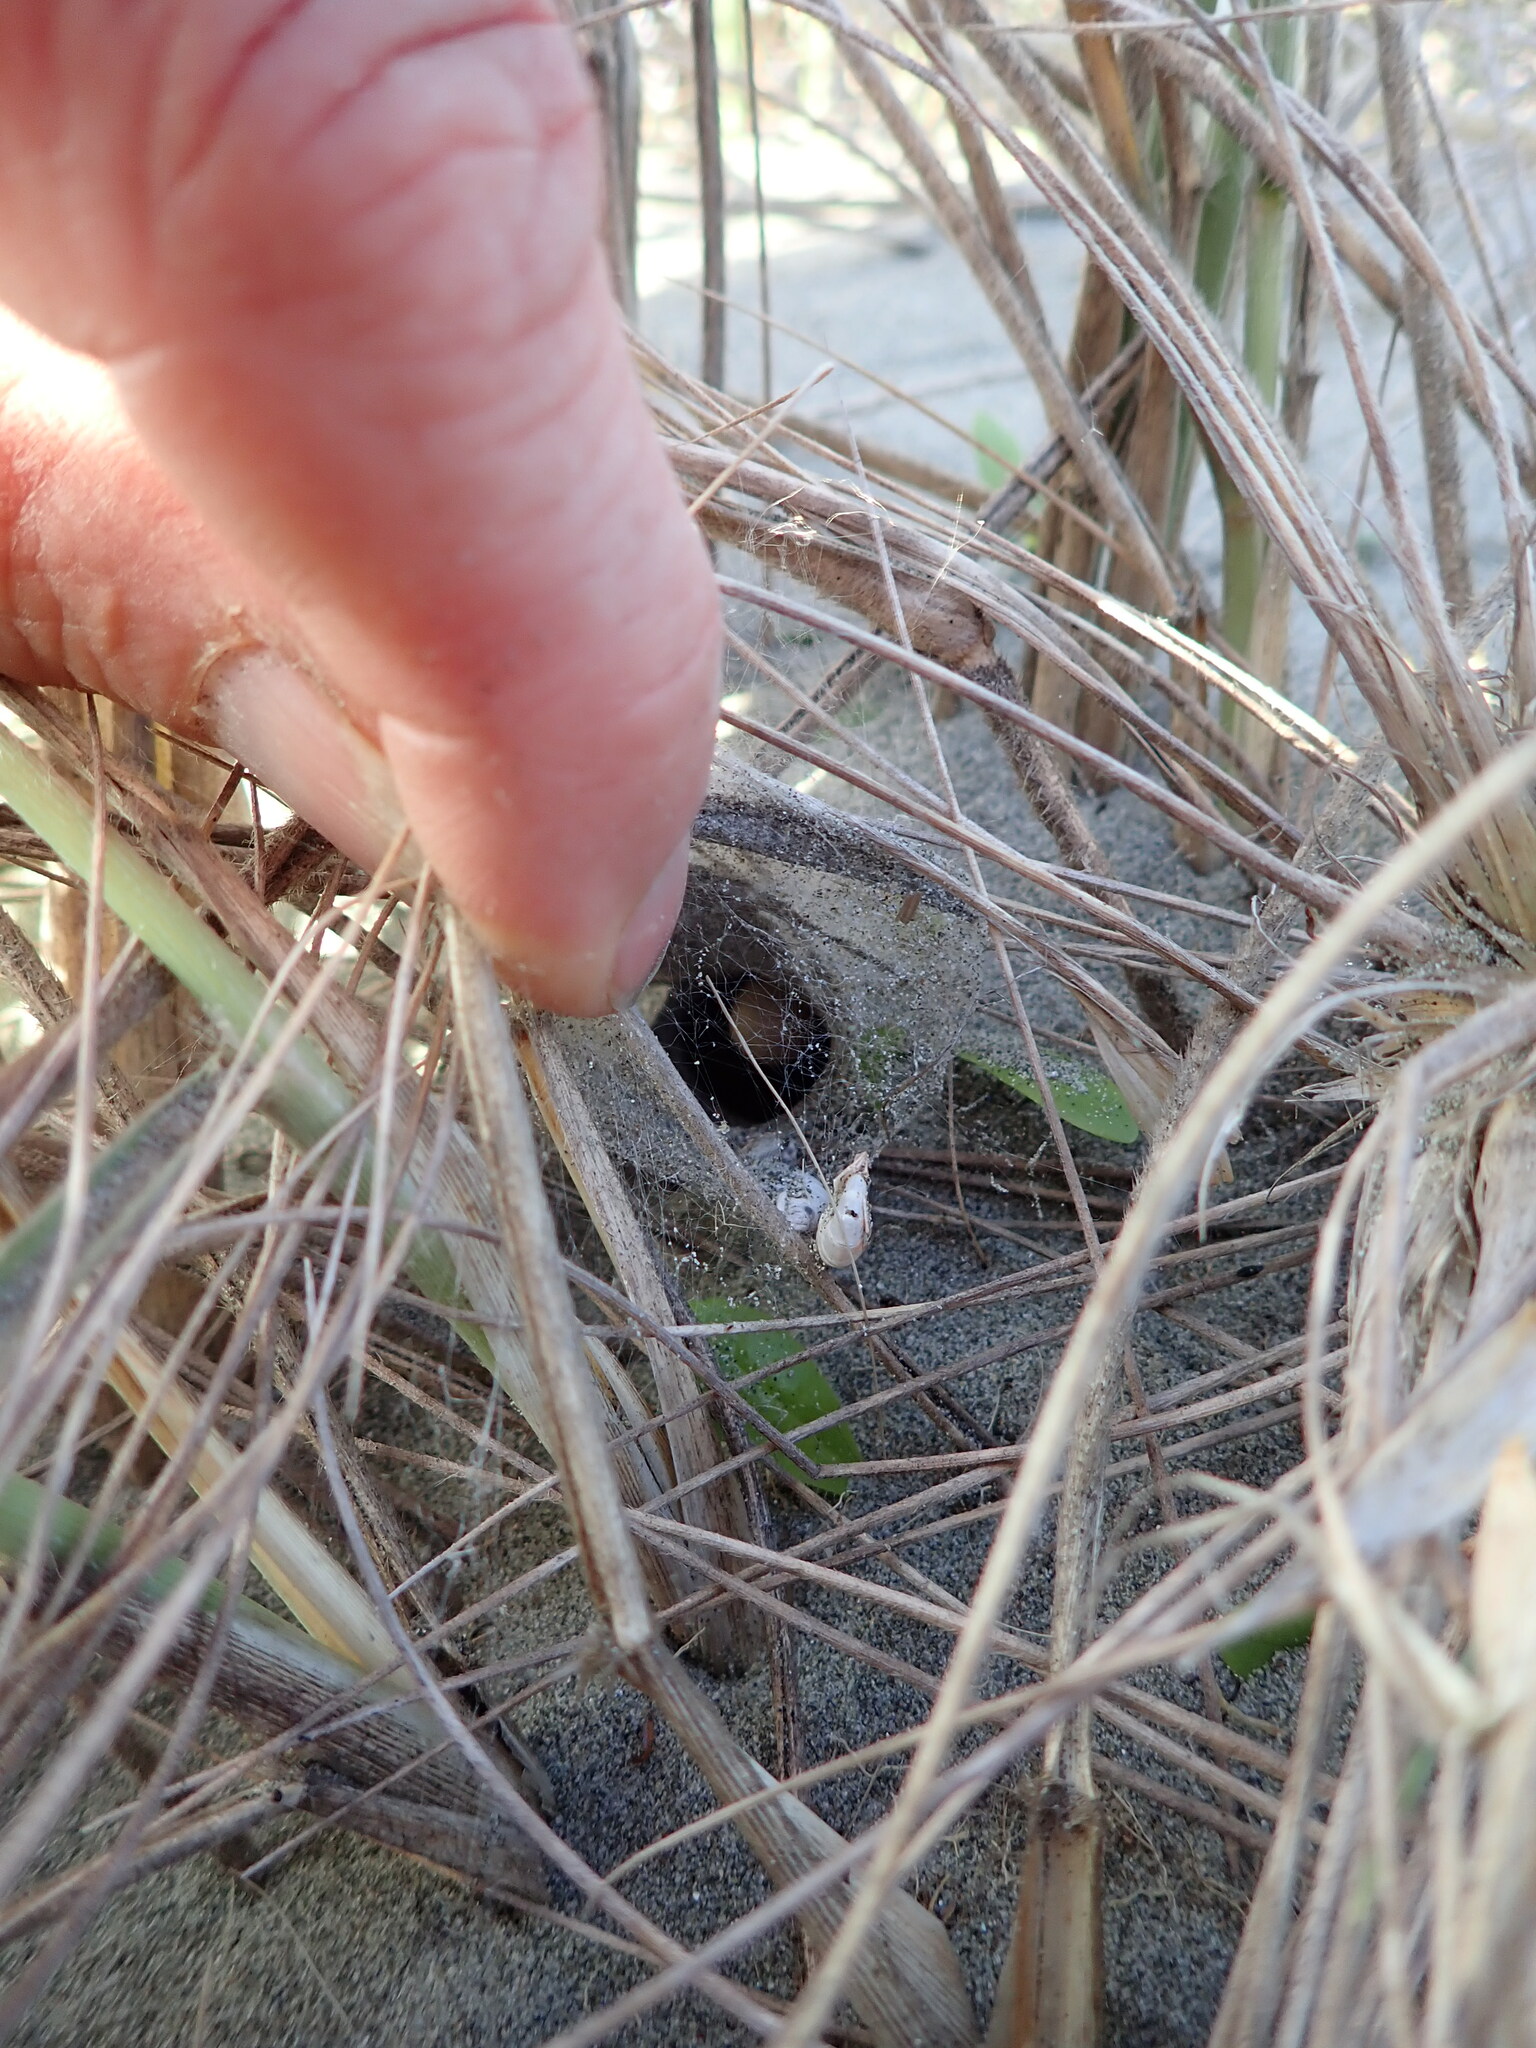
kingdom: Animalia
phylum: Arthropoda
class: Arachnida
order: Araneae
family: Theridiidae
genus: Latrodectus
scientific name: Latrodectus katipo
